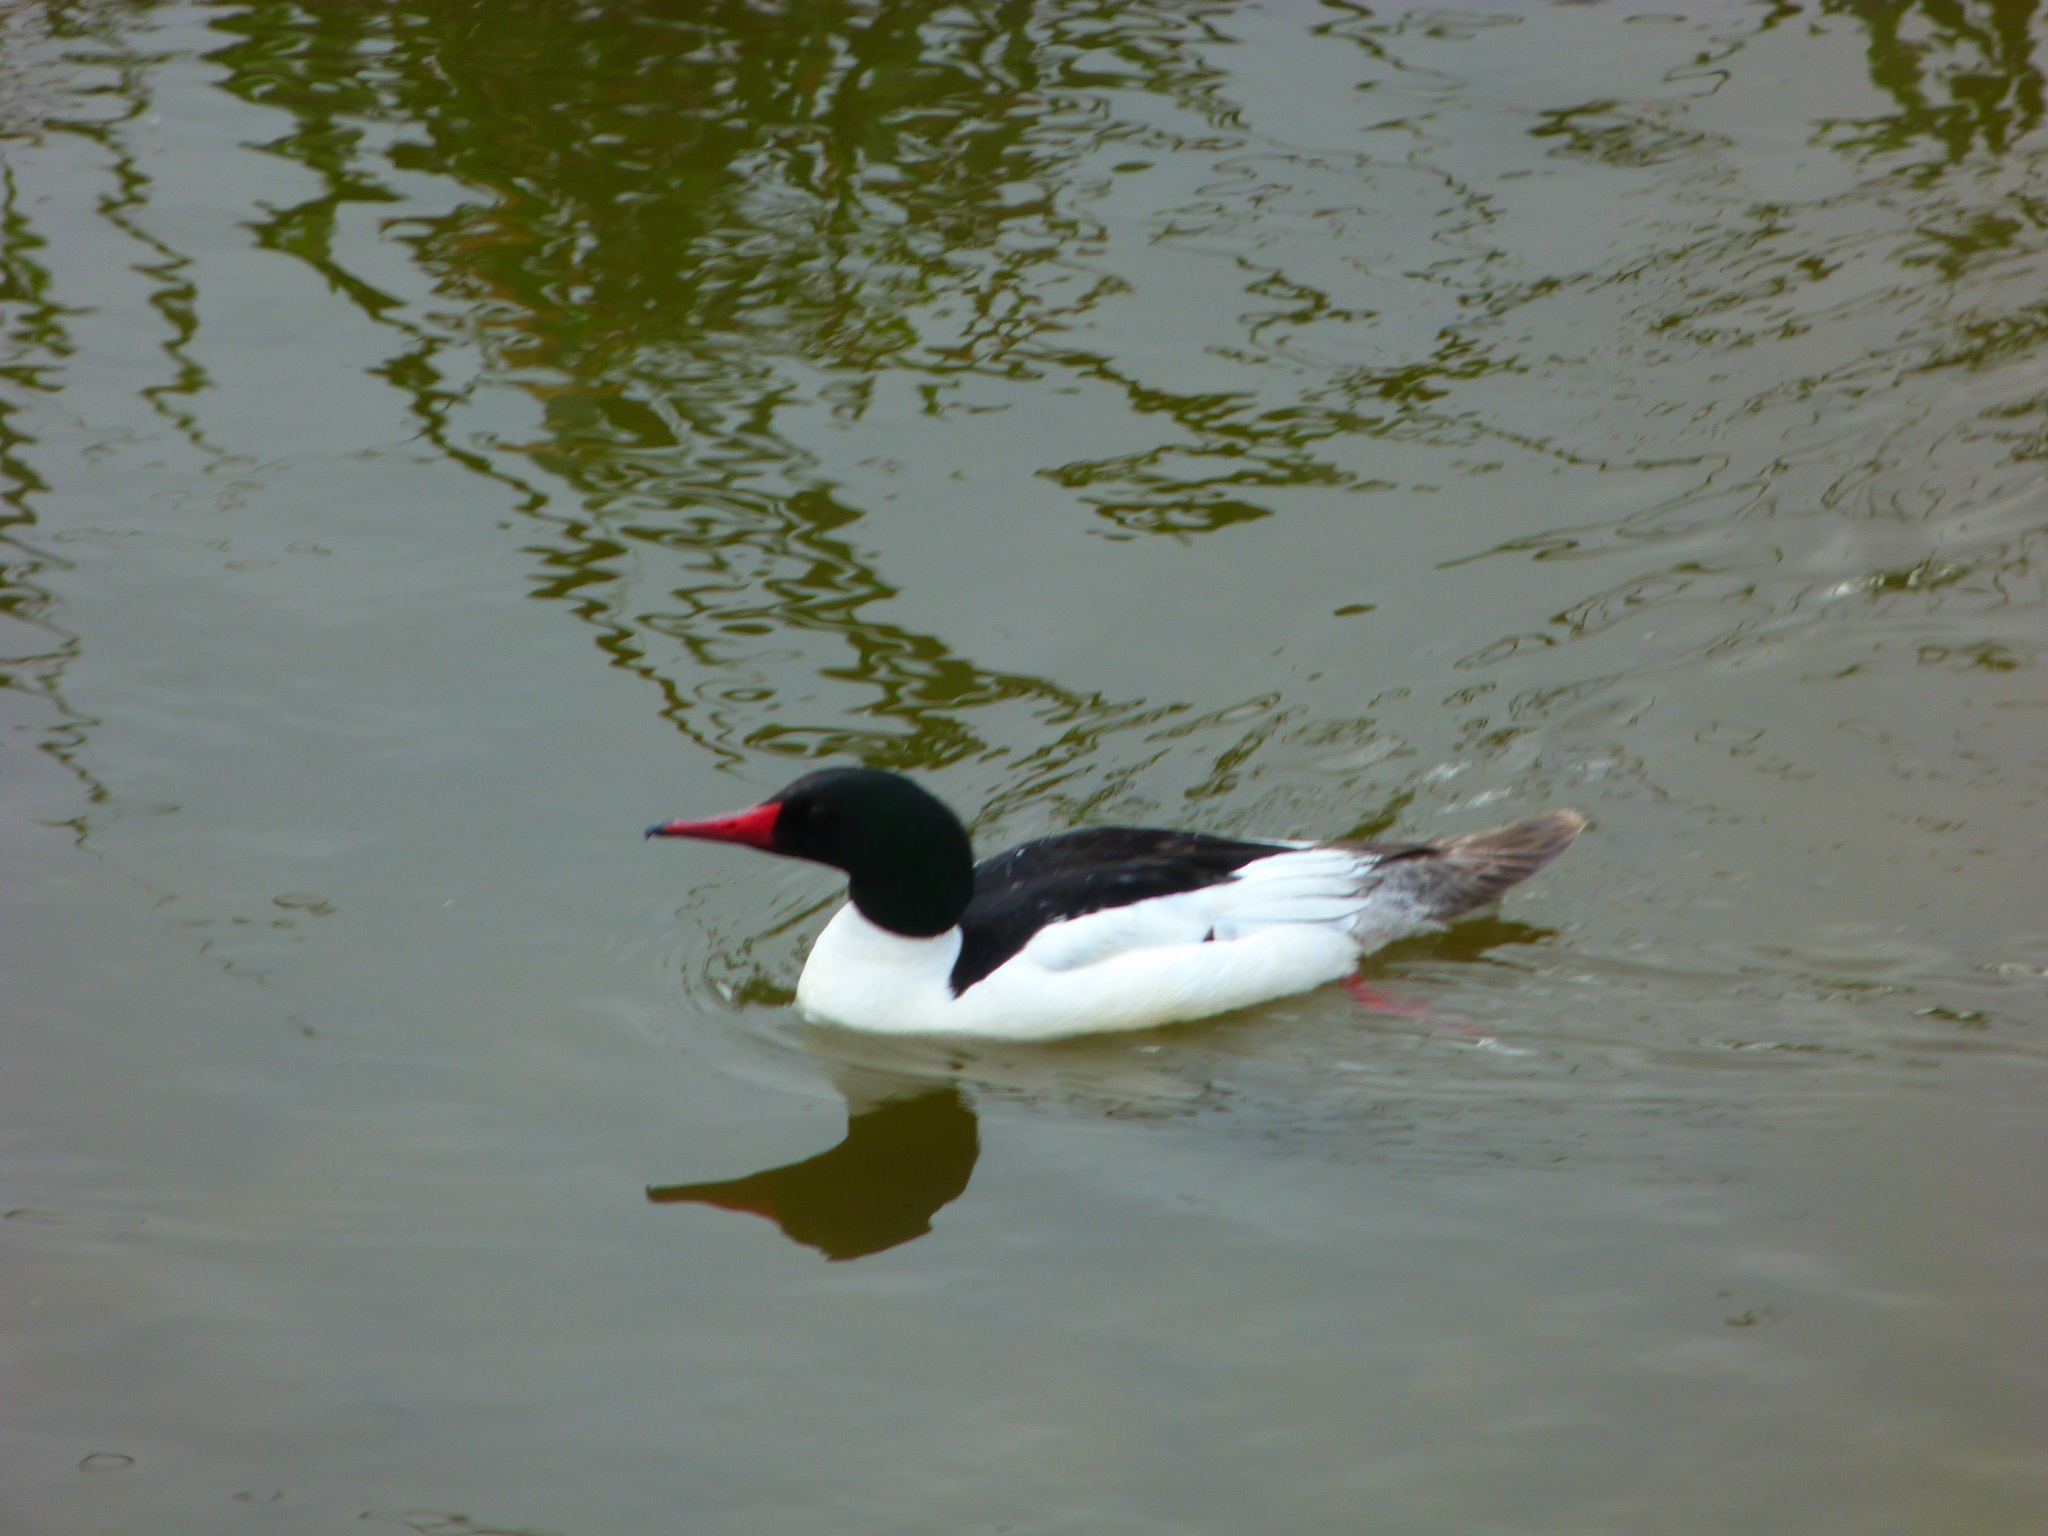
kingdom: Animalia
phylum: Chordata
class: Aves
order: Anseriformes
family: Anatidae
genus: Mergus
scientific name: Mergus merganser
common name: Common merganser
